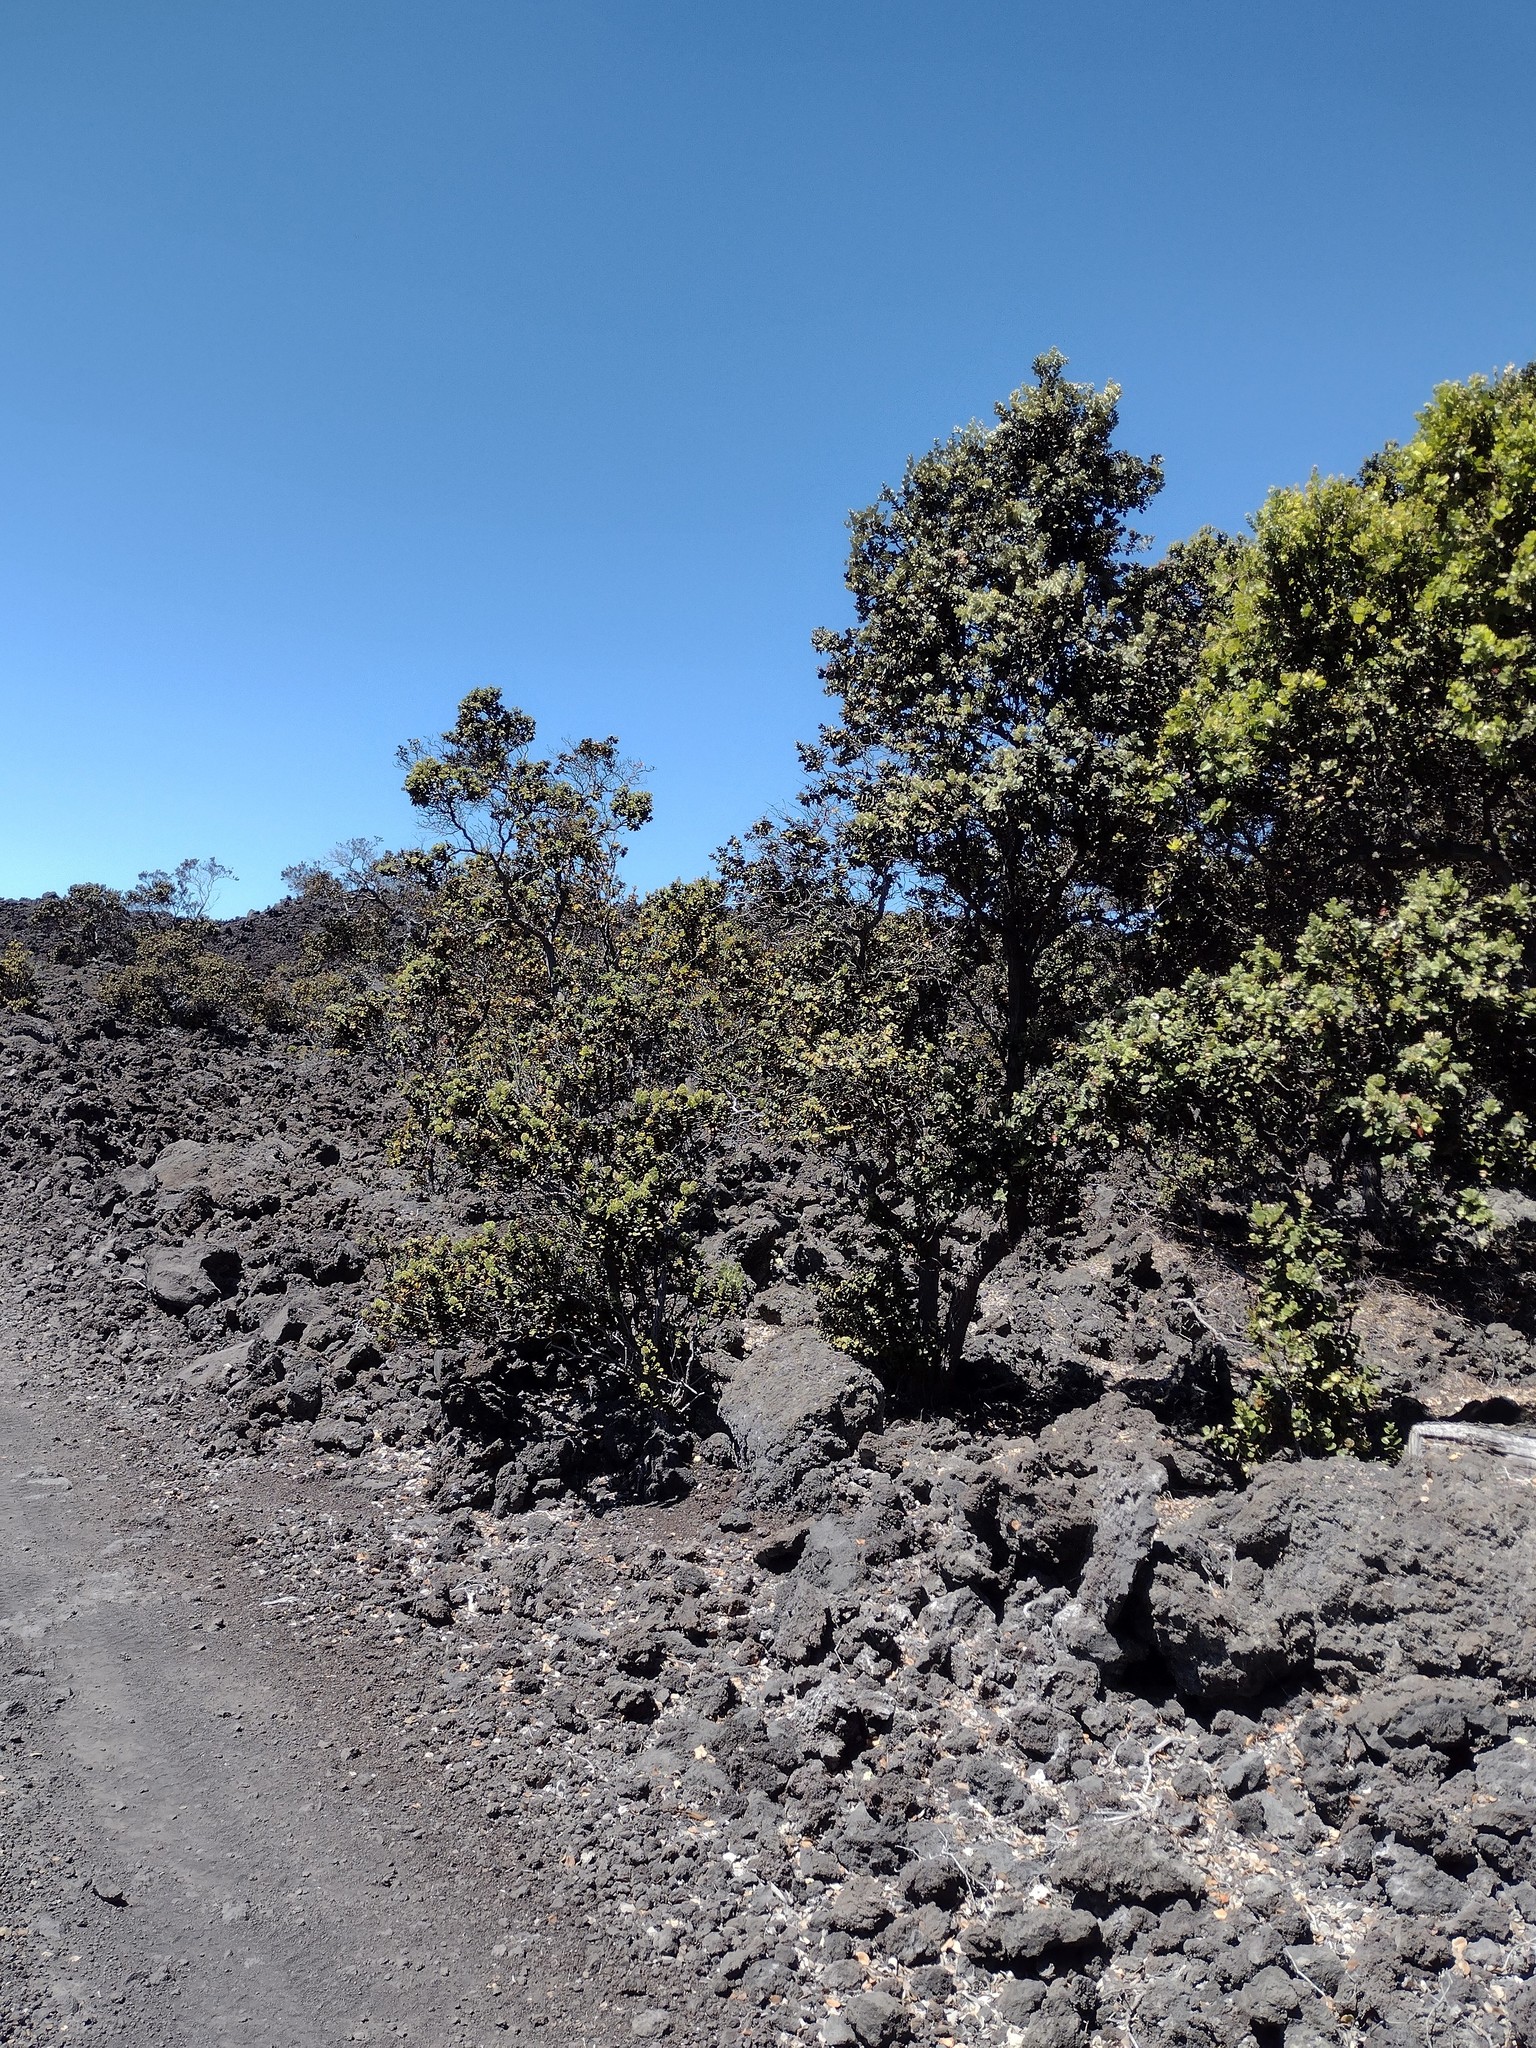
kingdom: Plantae
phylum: Tracheophyta
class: Magnoliopsida
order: Myrtales
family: Myrtaceae
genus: Metrosideros
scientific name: Metrosideros polymorpha
